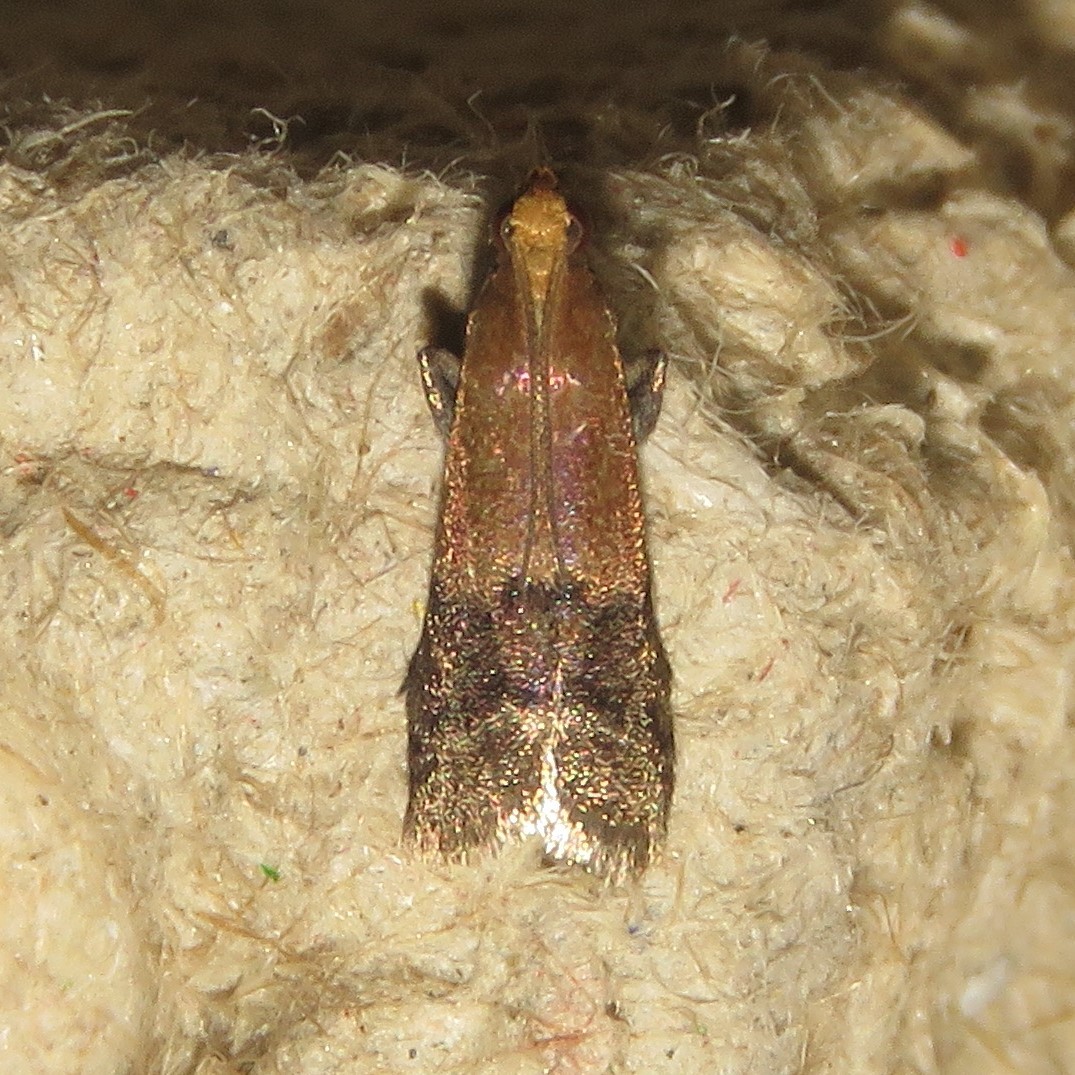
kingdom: Animalia
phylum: Arthropoda
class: Insecta
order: Lepidoptera
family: Pyralidae
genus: Eulogia
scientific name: Eulogia ochrifrontella
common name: Broad-banded eulogia moth
